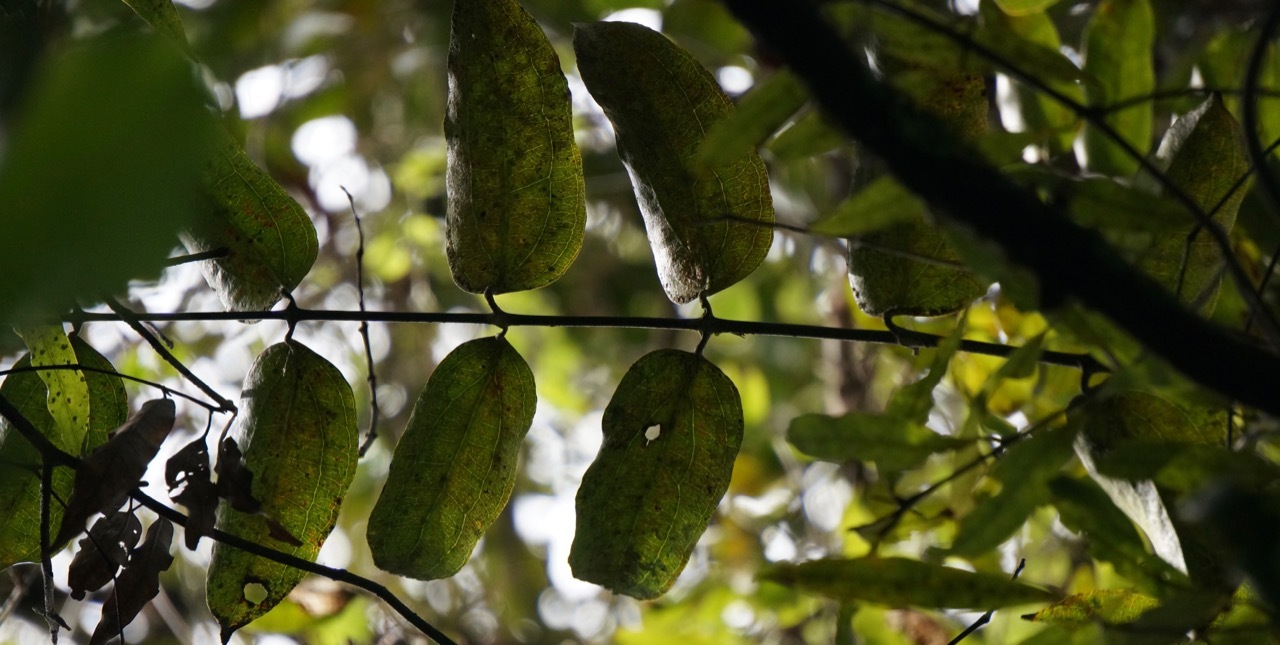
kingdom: Plantae
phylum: Tracheophyta
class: Liliopsida
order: Liliales
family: Ripogonaceae
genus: Ripogonum
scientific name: Ripogonum scandens
